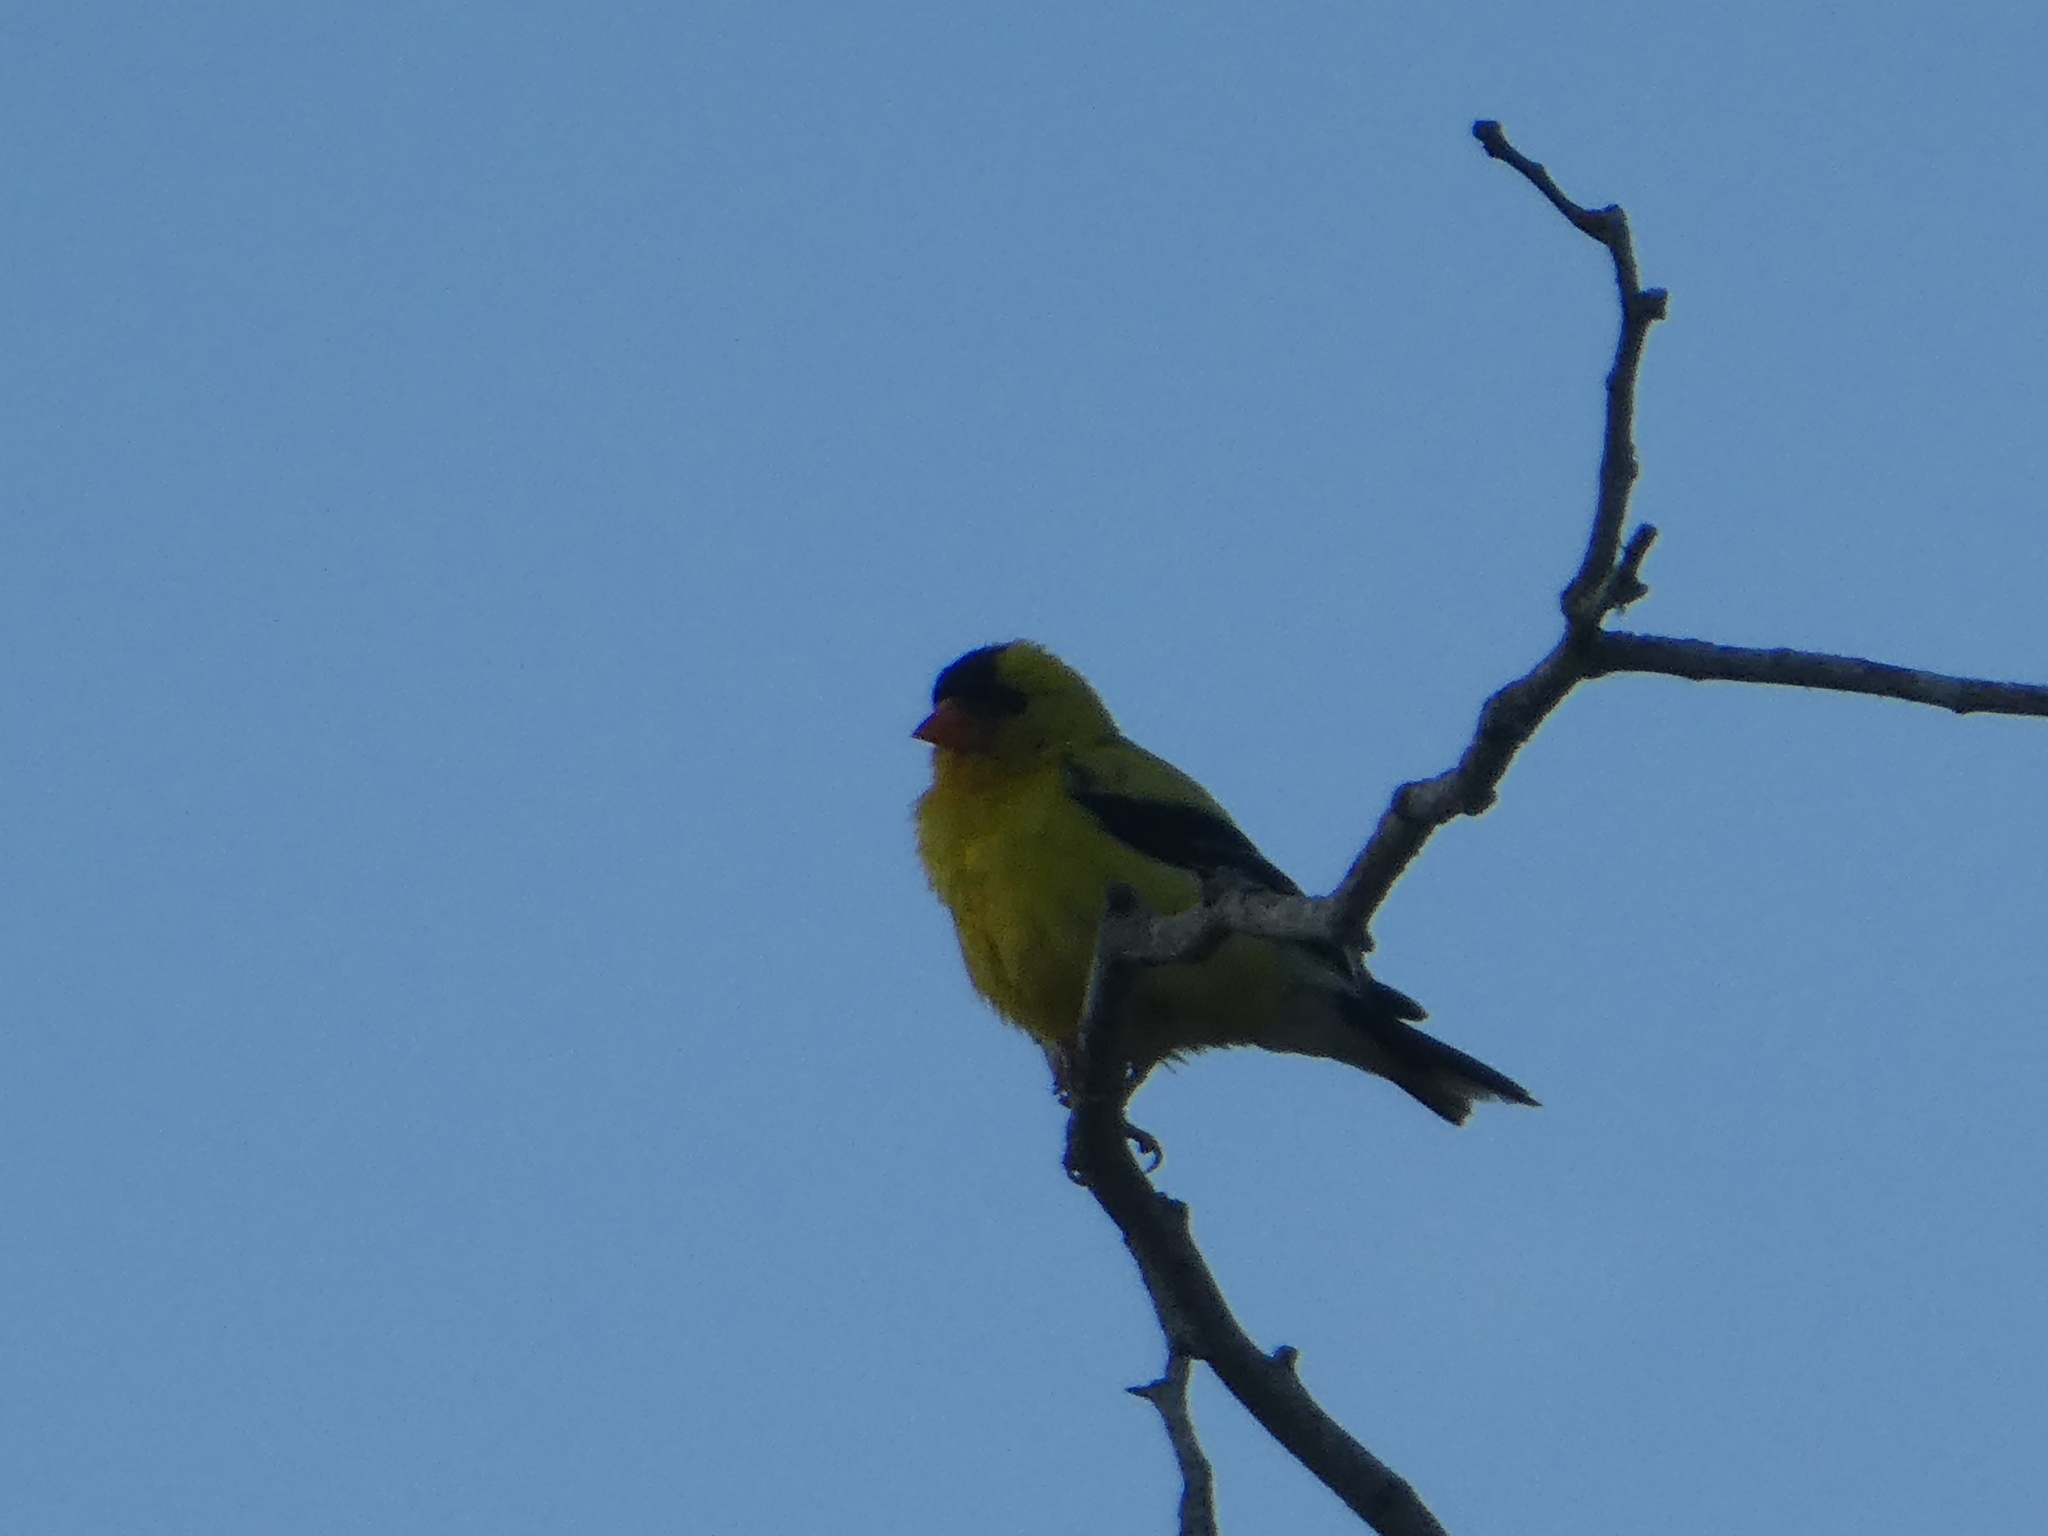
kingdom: Animalia
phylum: Chordata
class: Aves
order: Passeriformes
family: Fringillidae
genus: Spinus
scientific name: Spinus tristis
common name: American goldfinch
